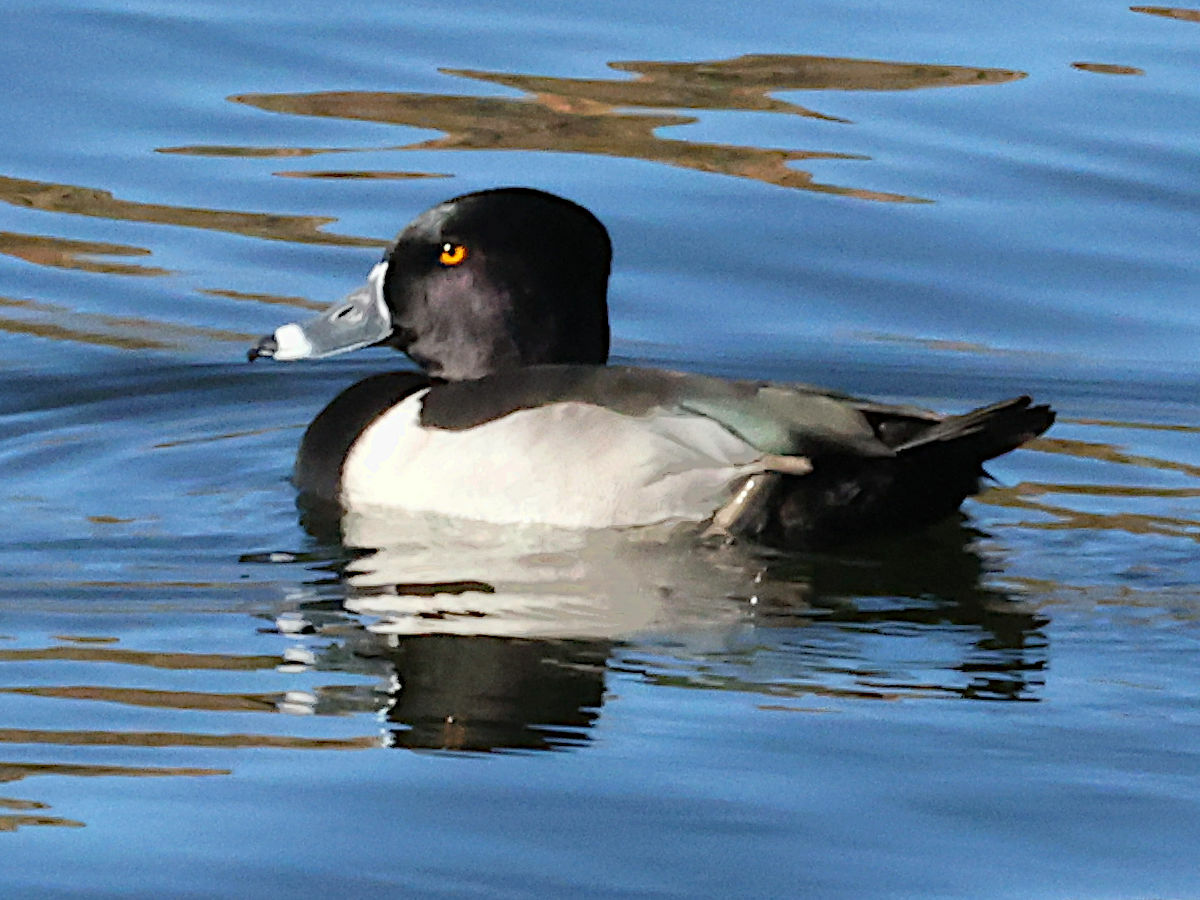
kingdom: Animalia
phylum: Chordata
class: Aves
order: Anseriformes
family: Anatidae
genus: Aythya
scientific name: Aythya collaris
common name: Ring-necked duck
